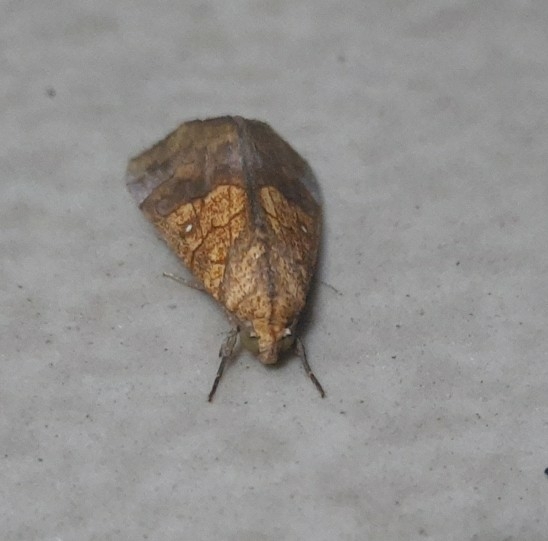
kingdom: Animalia
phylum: Arthropoda
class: Insecta
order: Lepidoptera
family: Erebidae
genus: Anomis
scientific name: Anomis flava
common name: Moth
